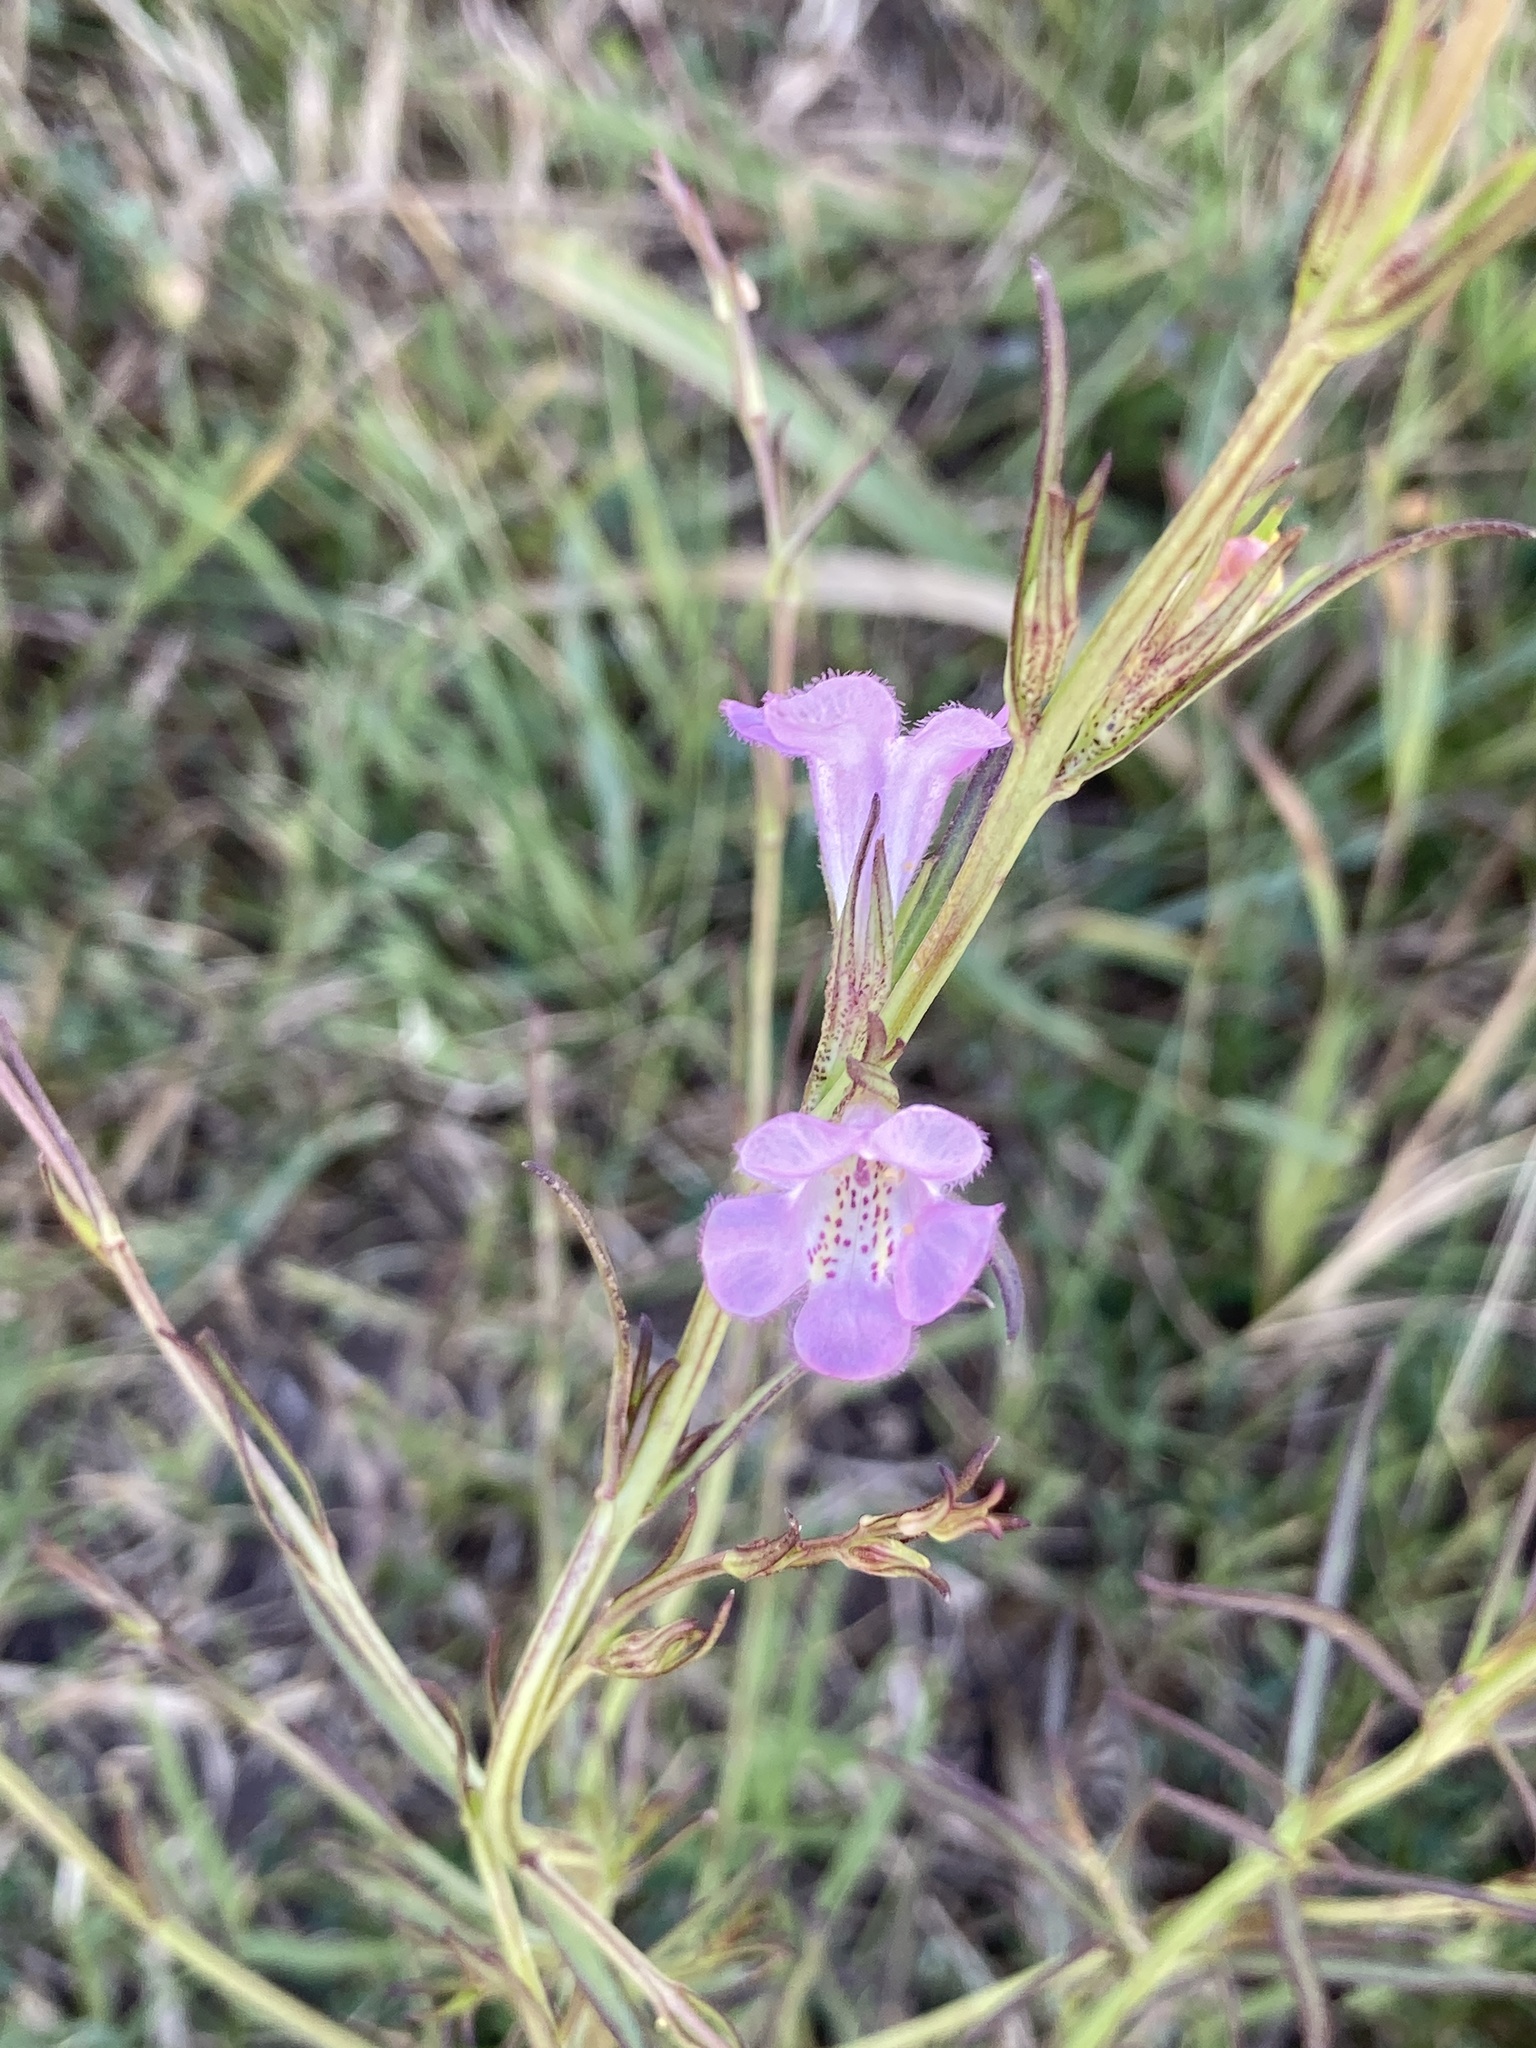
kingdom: Plantae
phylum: Tracheophyta
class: Magnoliopsida
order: Lamiales
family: Orobanchaceae
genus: Agalinis
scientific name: Agalinis communis
